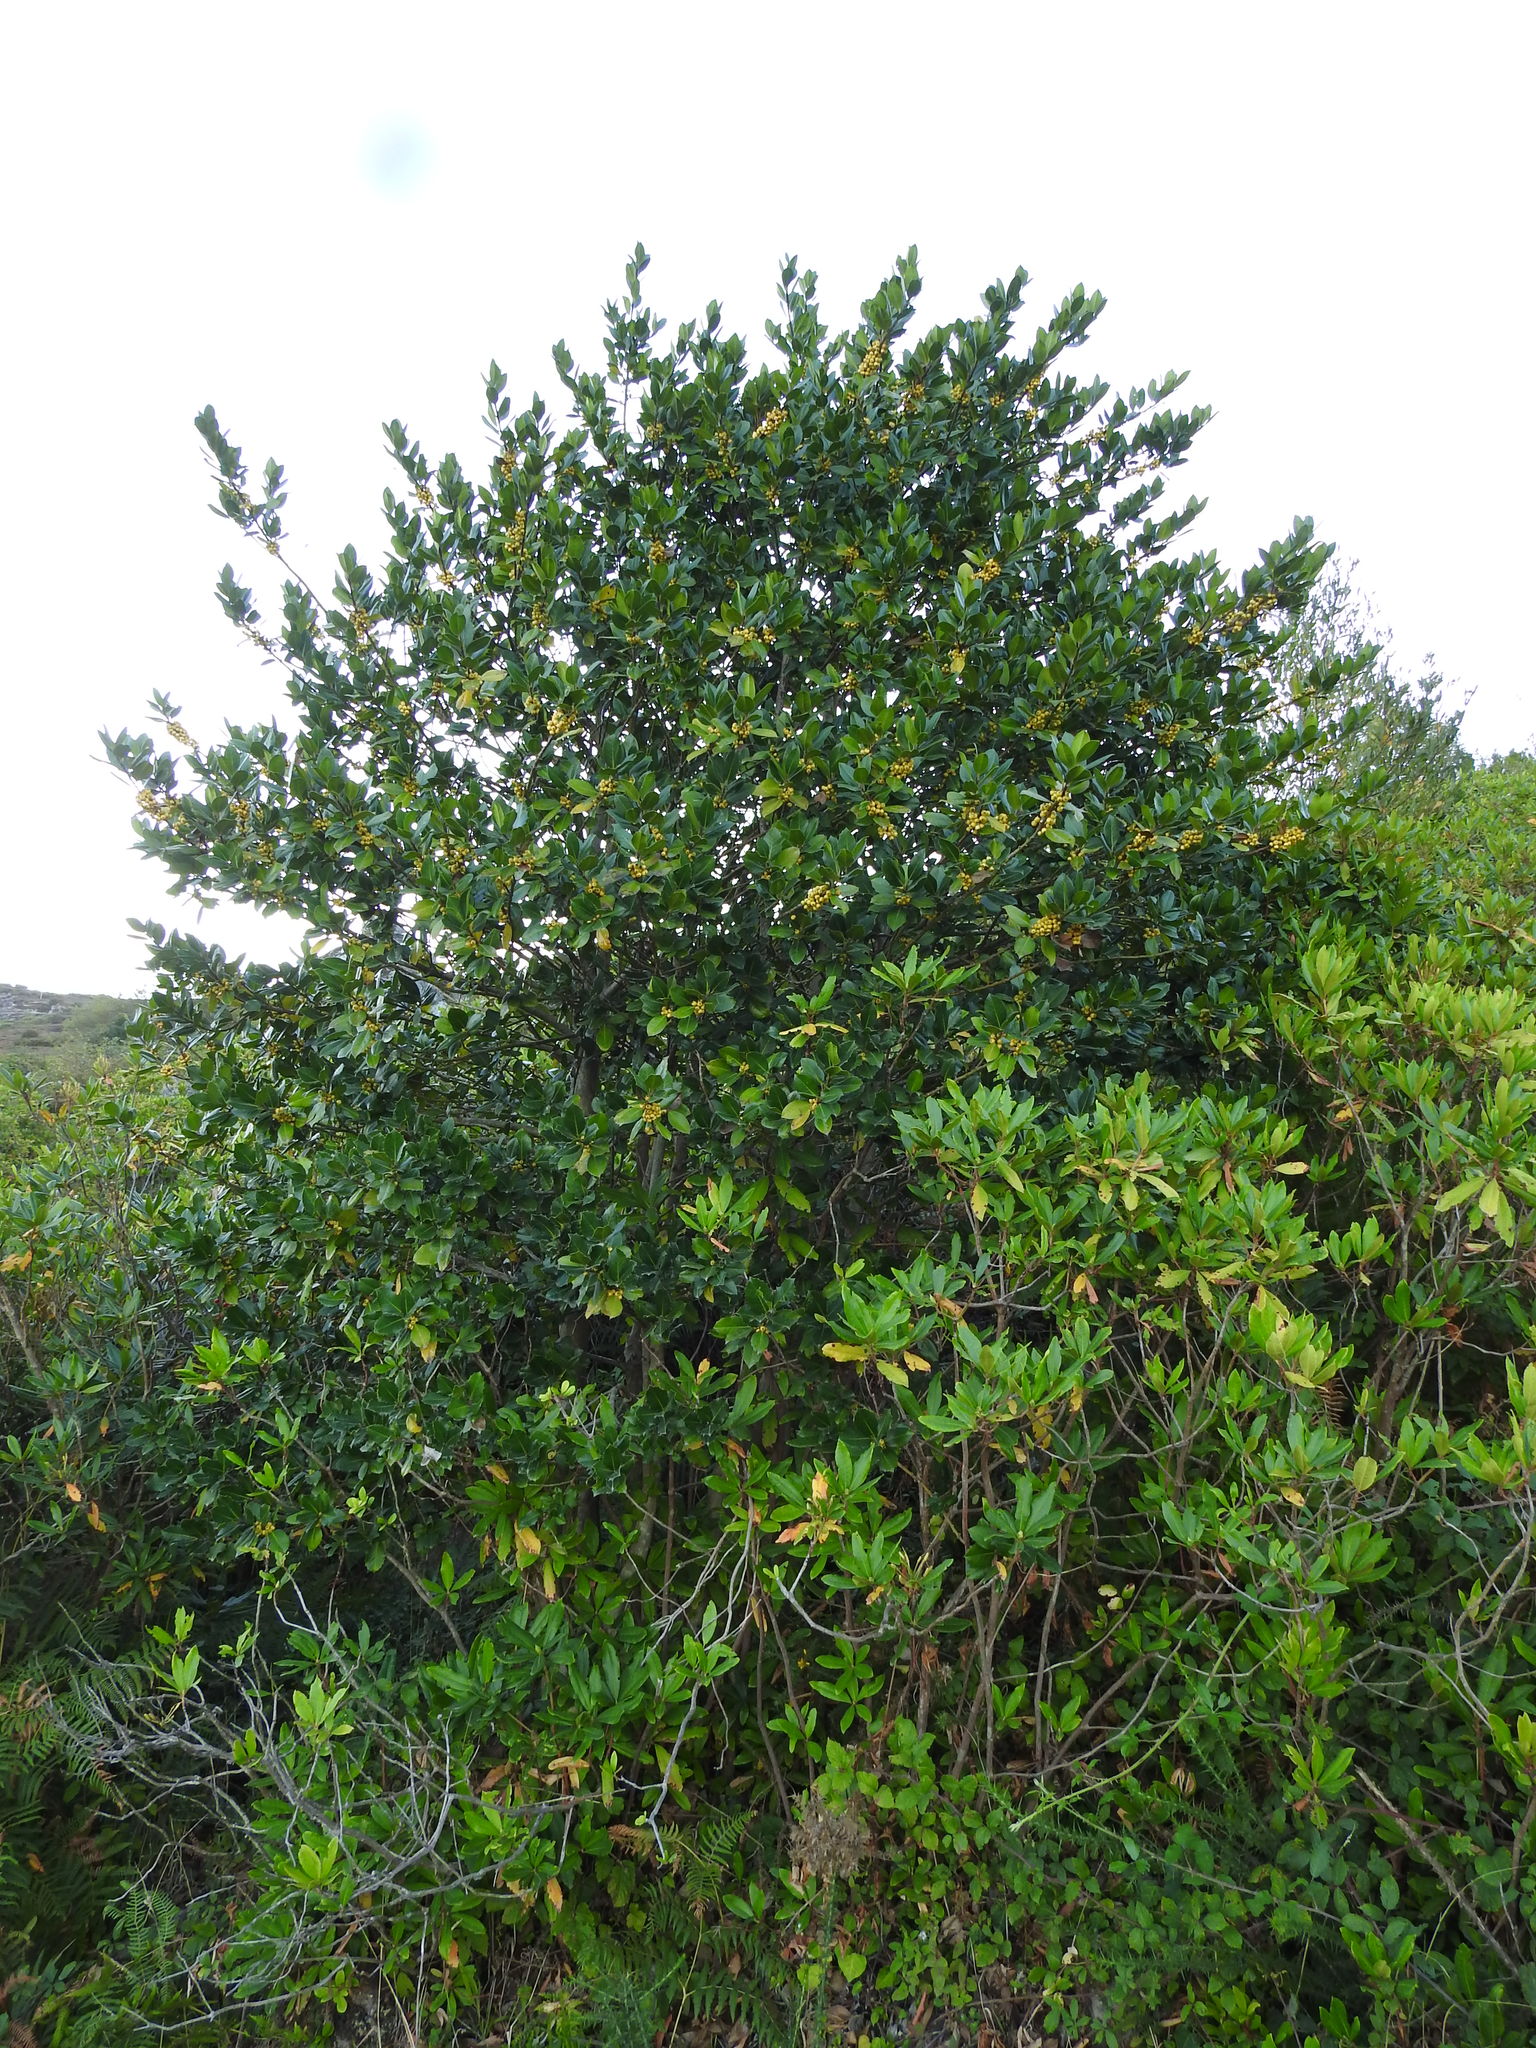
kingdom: Plantae
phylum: Tracheophyta
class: Magnoliopsida
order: Aquifoliales
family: Aquifoliaceae
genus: Ilex
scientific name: Ilex aquifolium
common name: English holly
